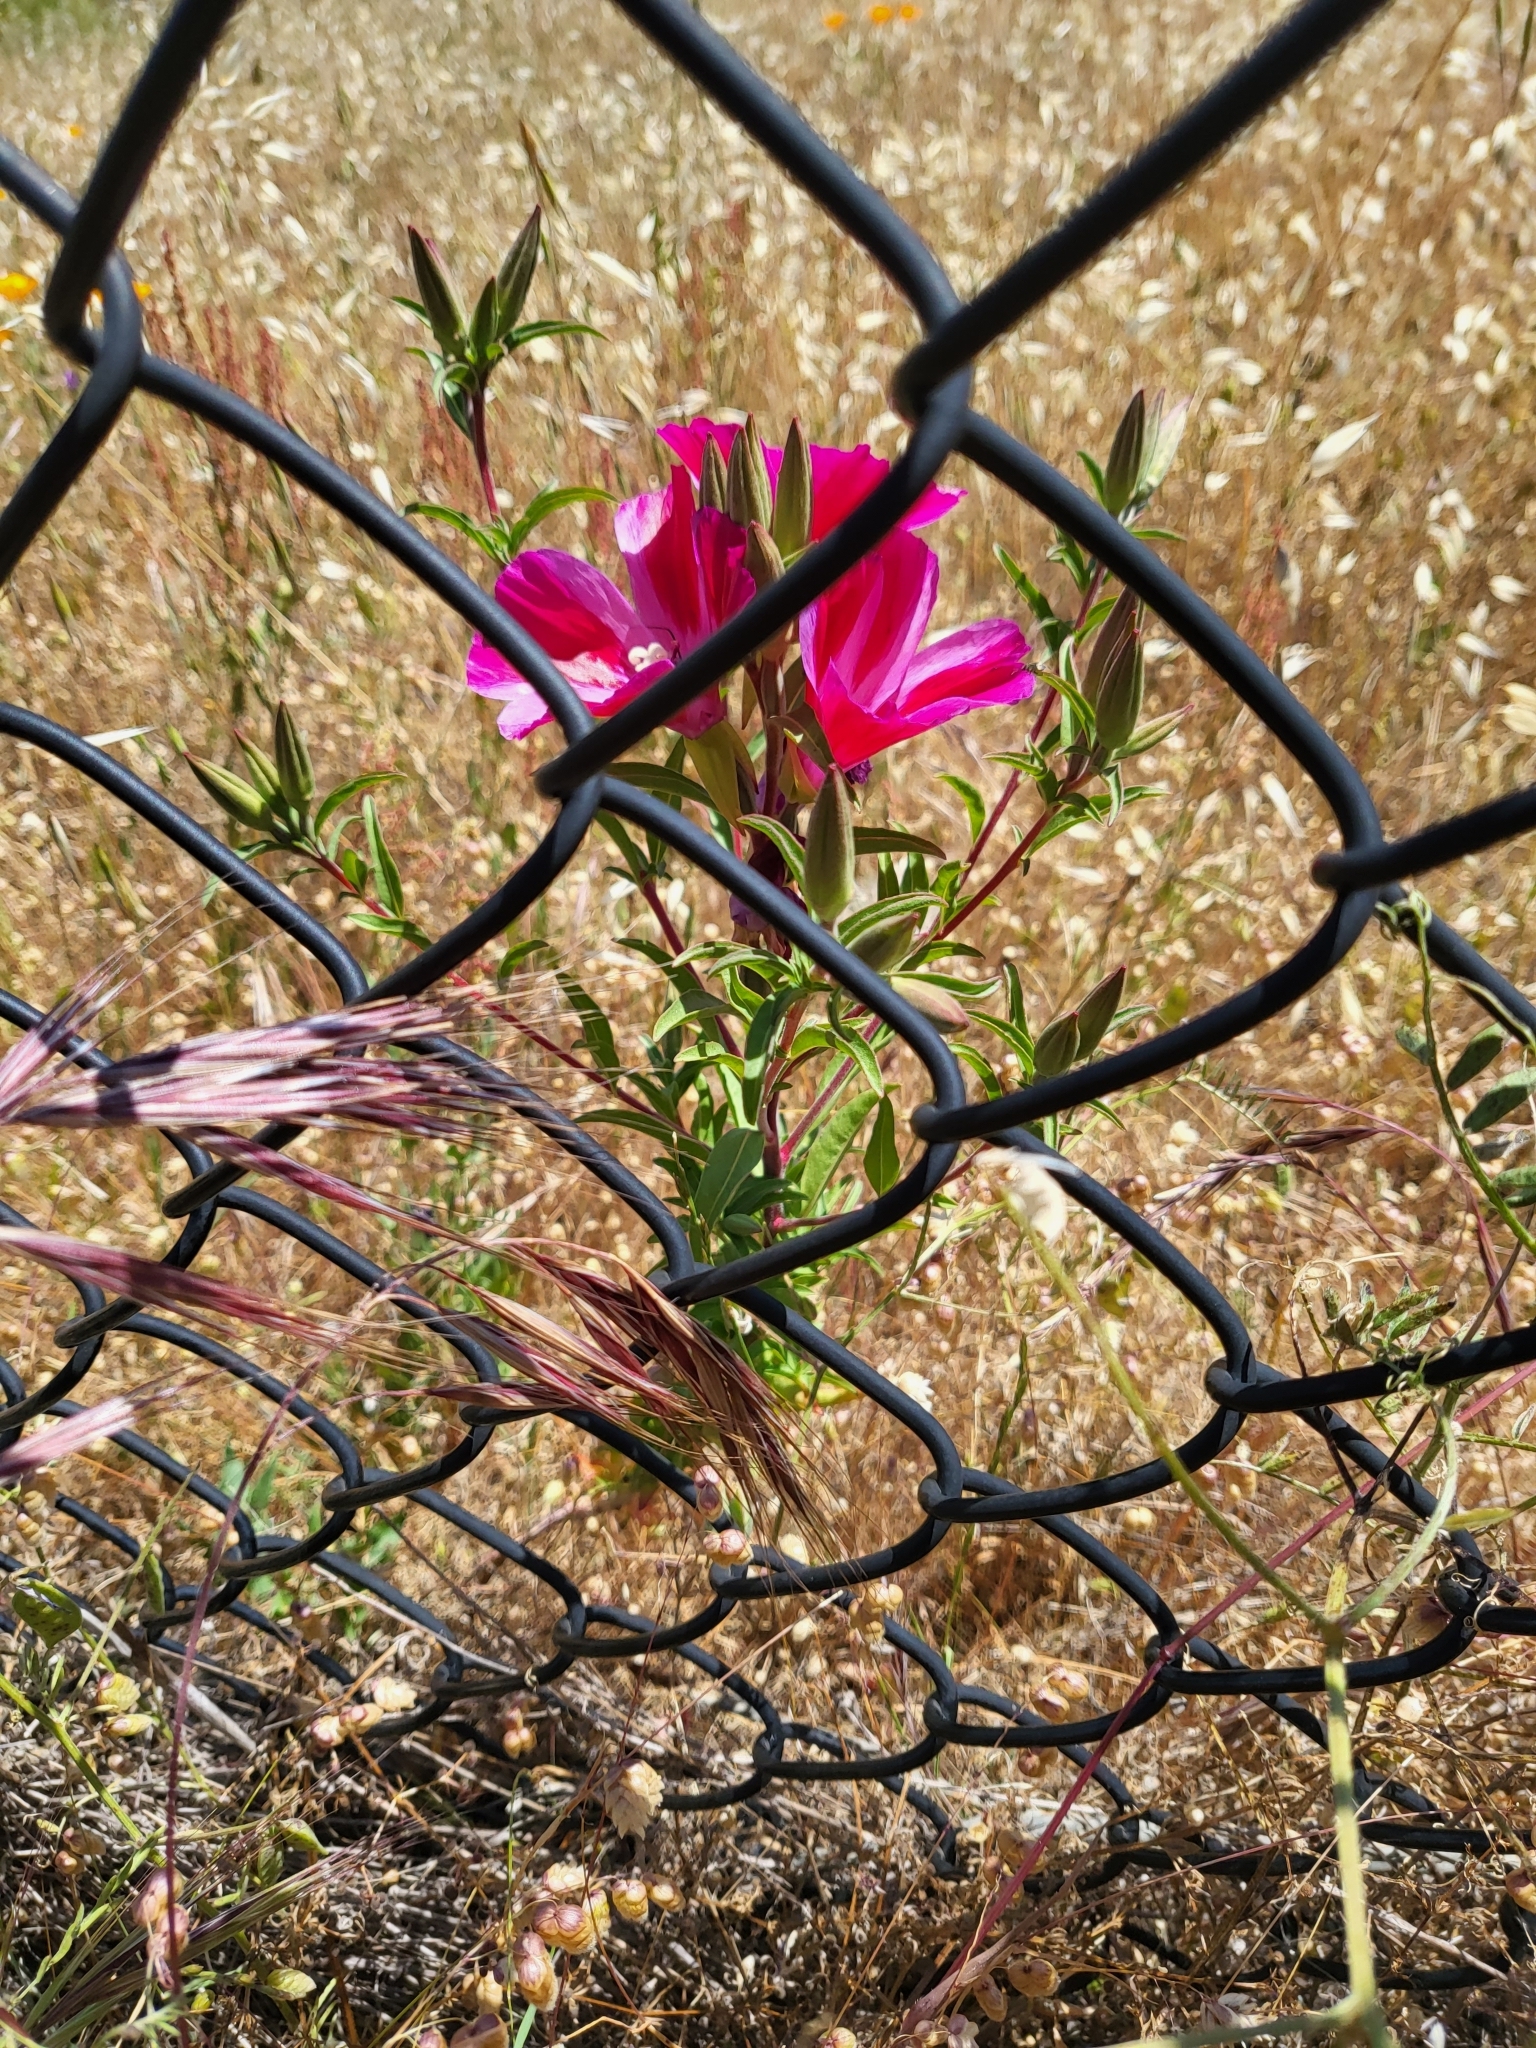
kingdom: Plantae
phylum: Tracheophyta
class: Magnoliopsida
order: Myrtales
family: Onagraceae
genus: Clarkia
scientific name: Clarkia amoena
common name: Godetia
